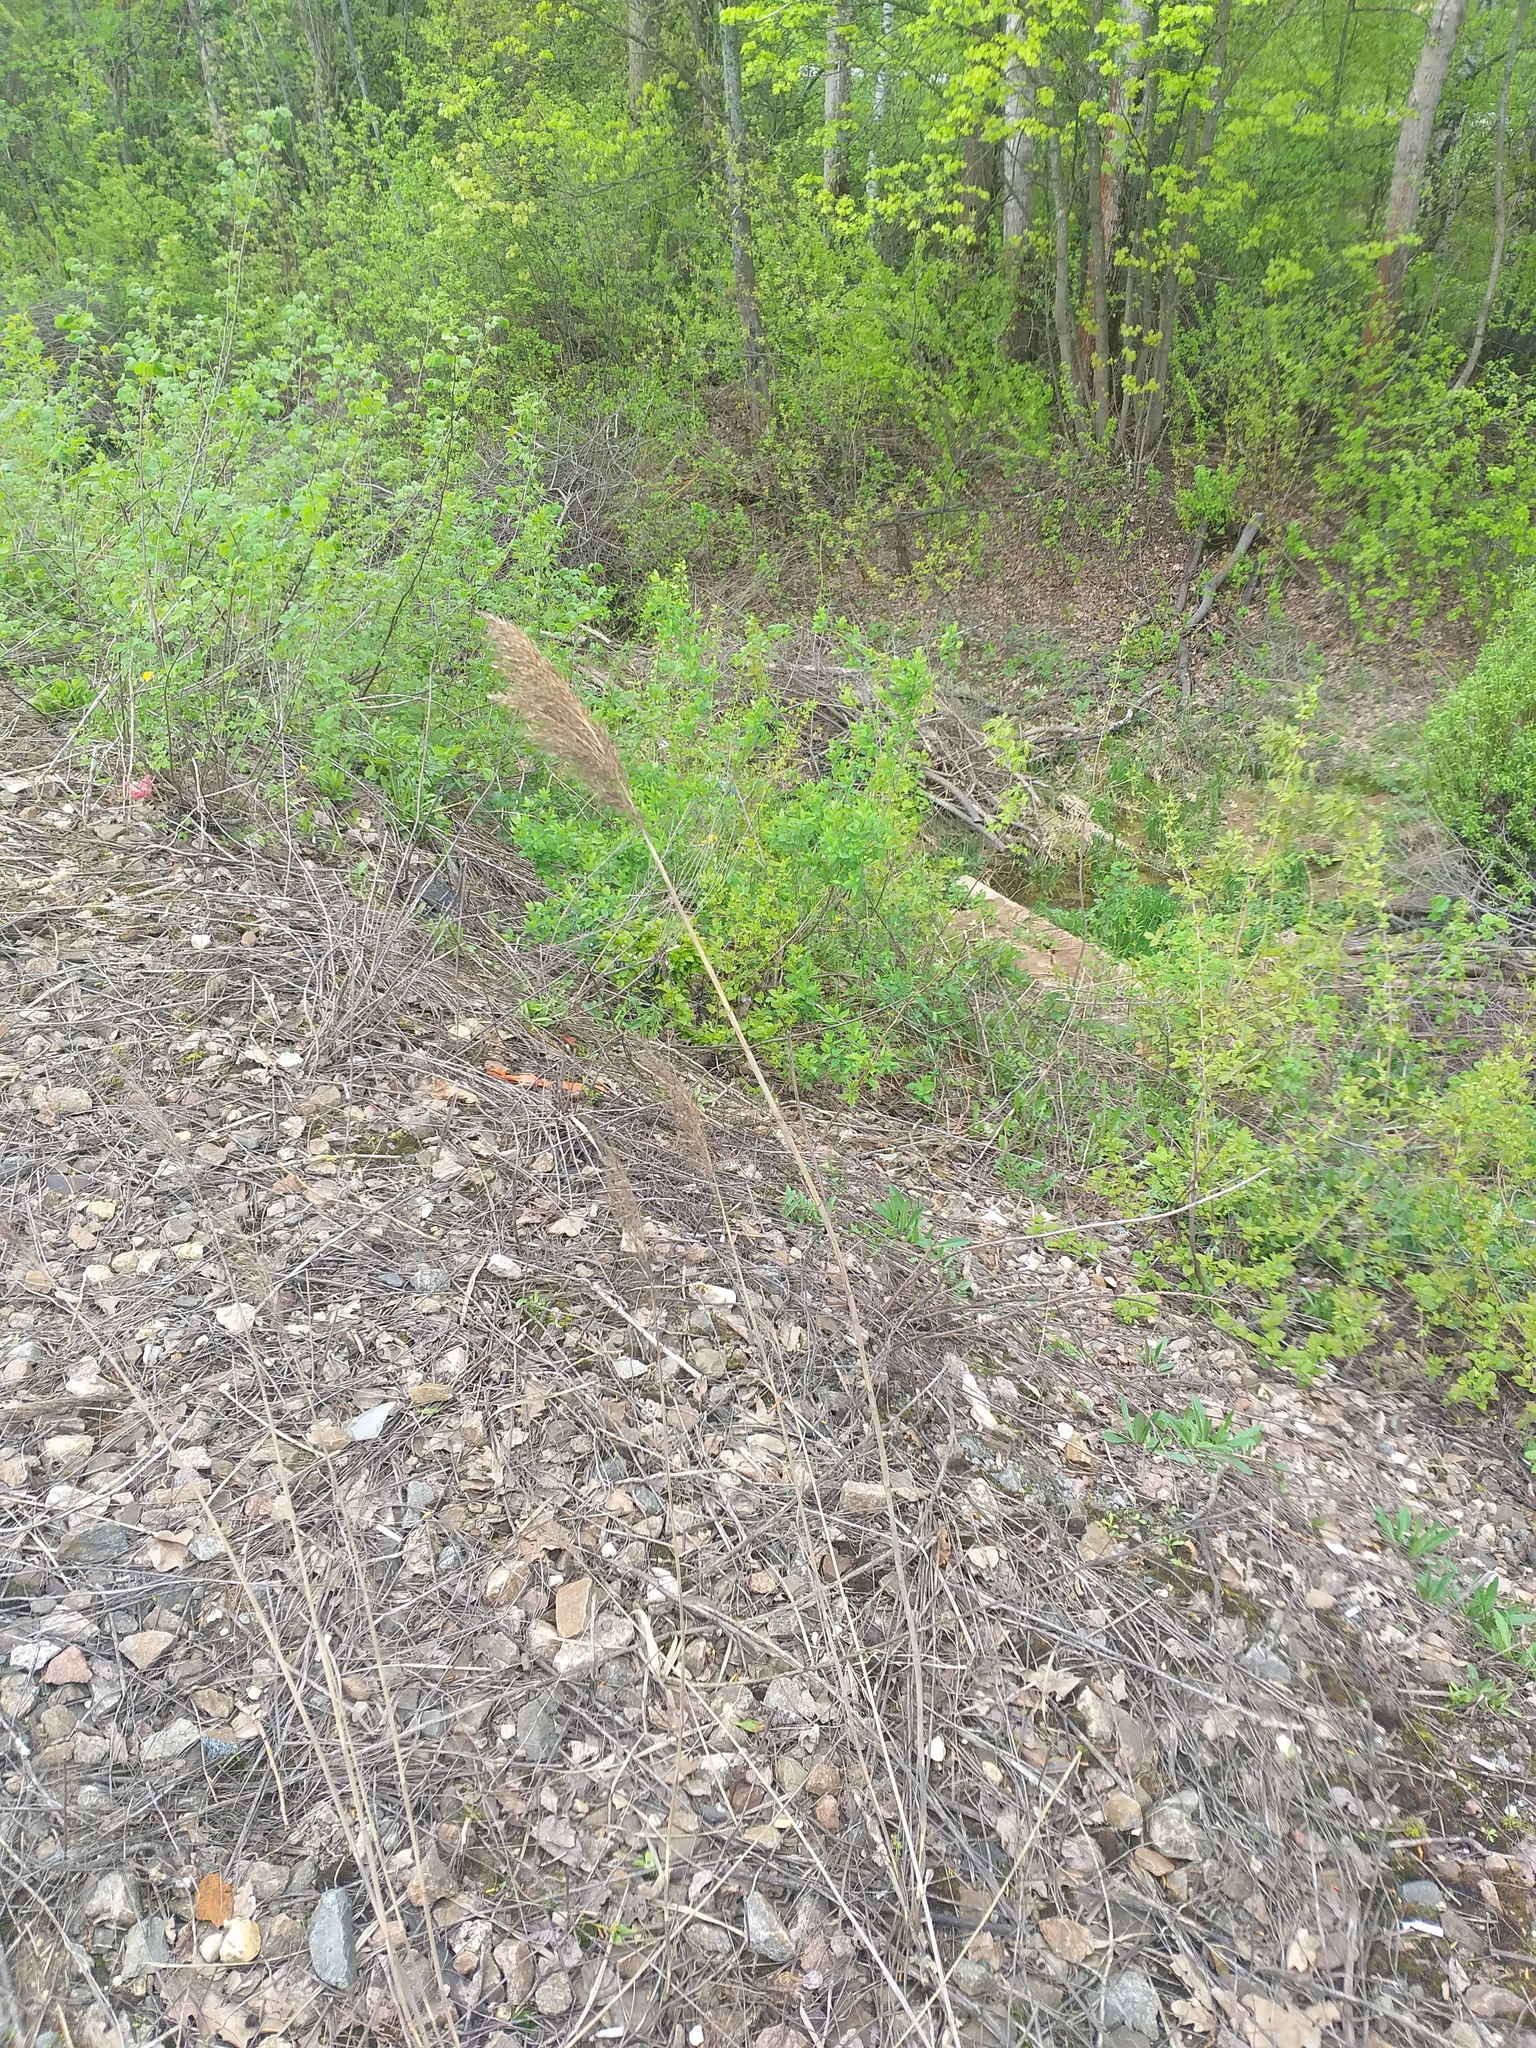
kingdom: Plantae
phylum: Tracheophyta
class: Liliopsida
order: Poales
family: Poaceae
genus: Phragmites
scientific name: Phragmites australis
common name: Common reed
